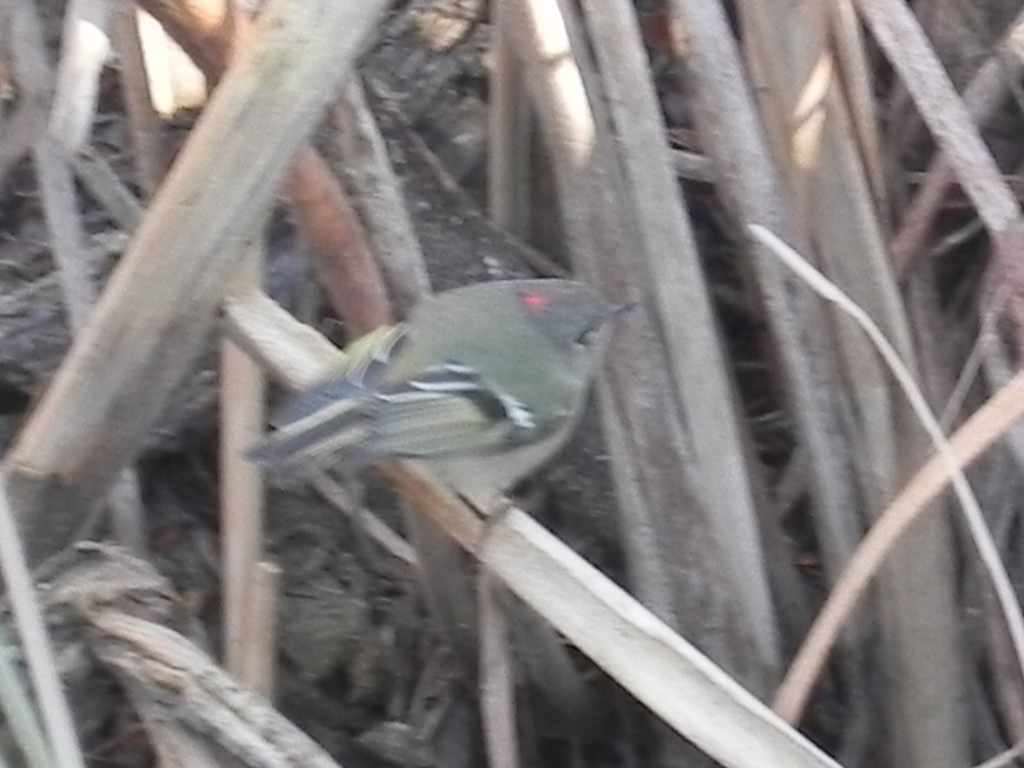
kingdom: Animalia
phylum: Chordata
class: Aves
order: Passeriformes
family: Regulidae
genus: Regulus
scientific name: Regulus calendula
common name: Ruby-crowned kinglet
